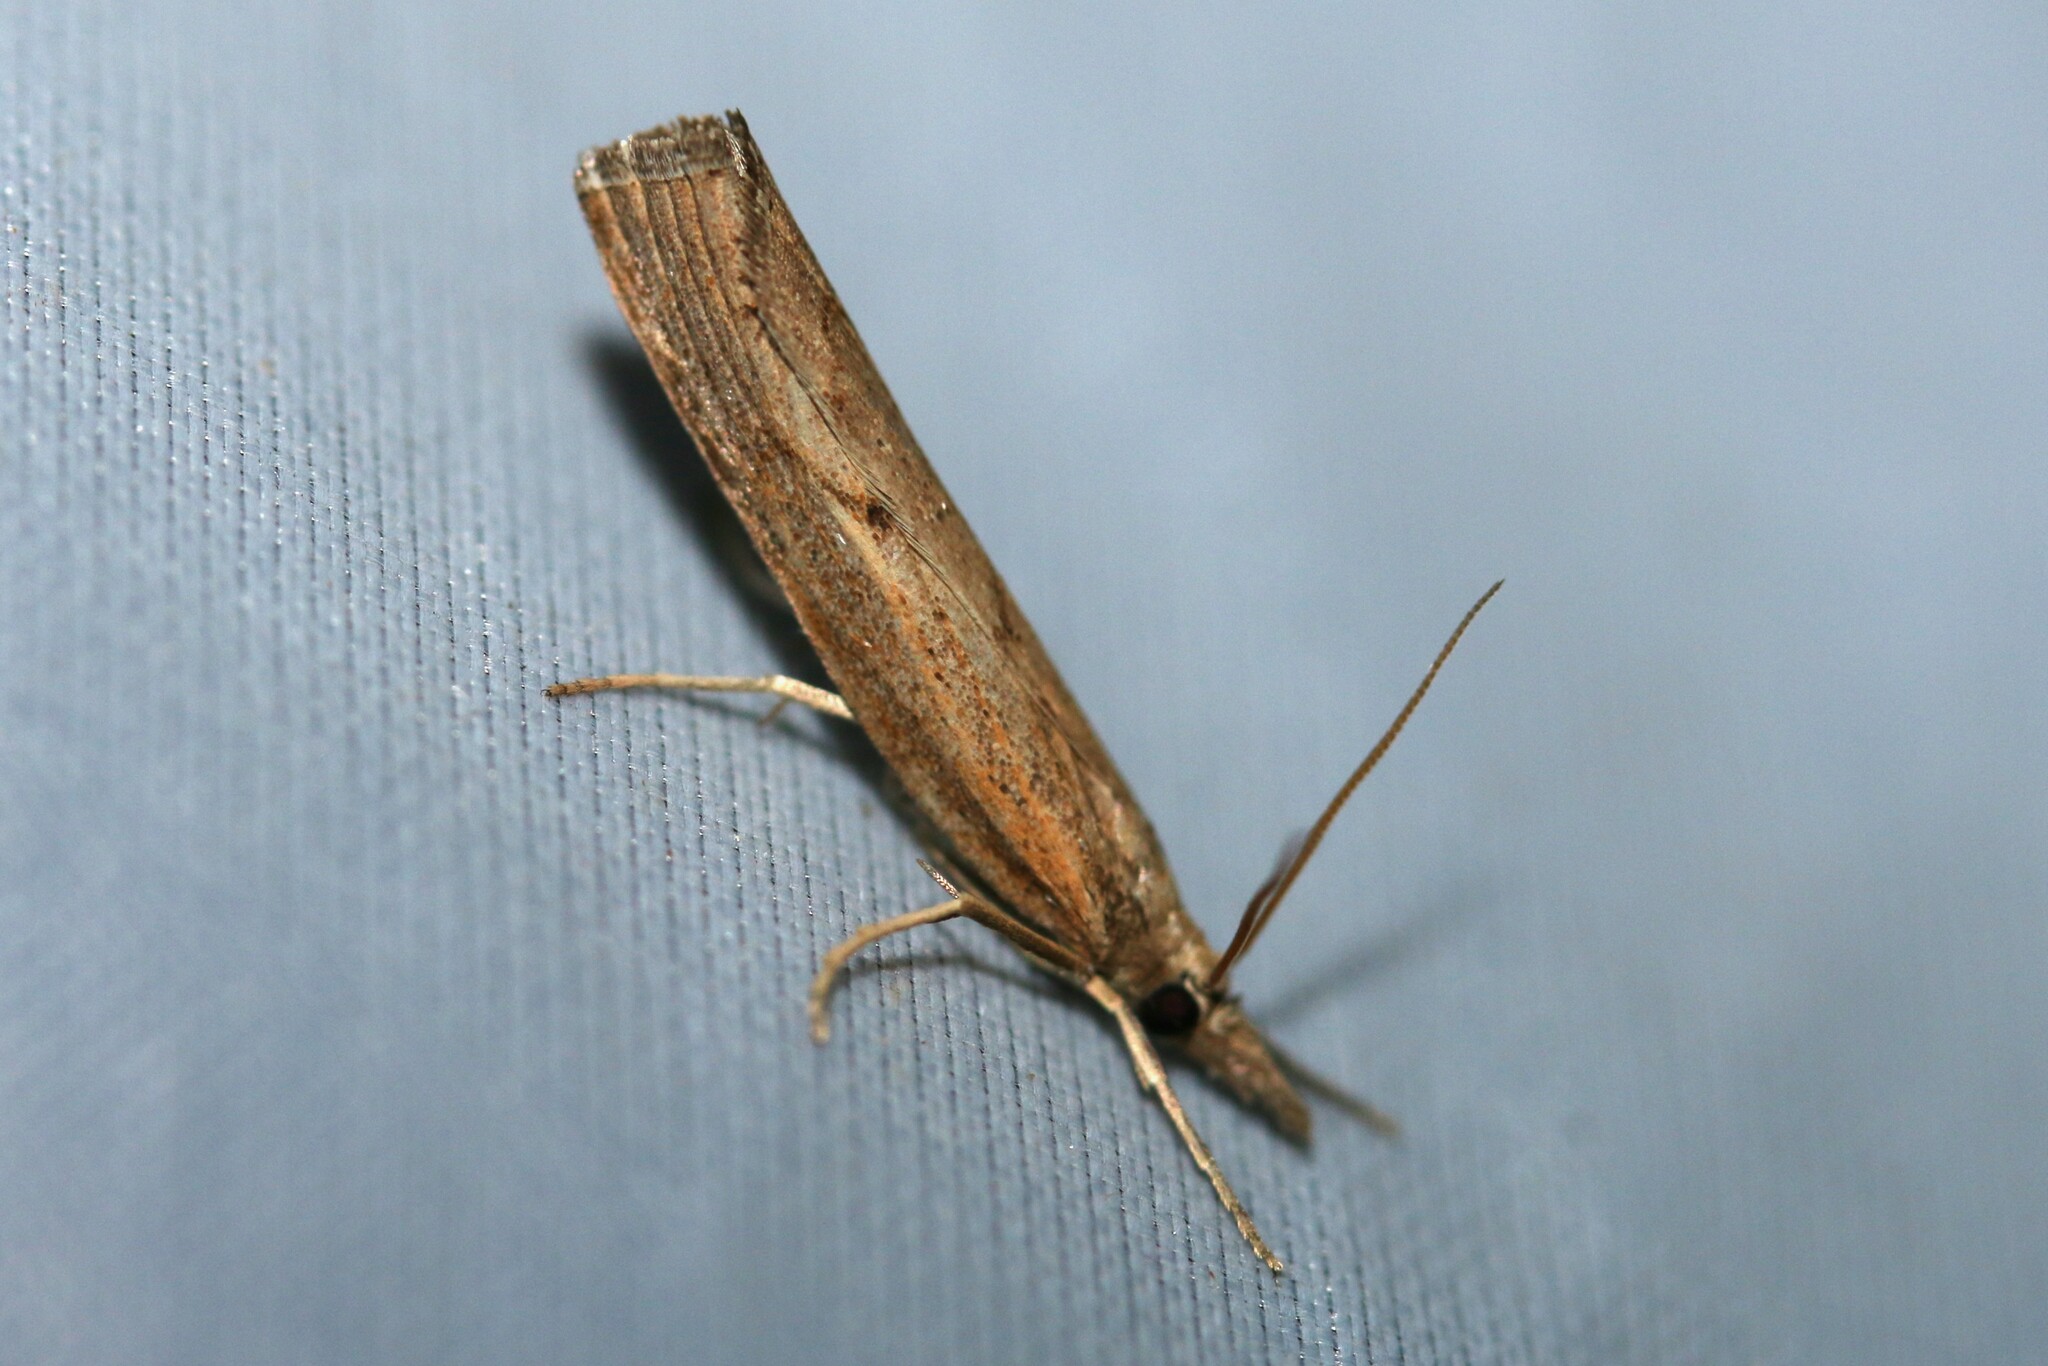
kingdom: Animalia
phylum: Arthropoda
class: Insecta
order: Lepidoptera
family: Crambidae
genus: Pediasia
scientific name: Pediasia contaminella
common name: Waste grass-veneer
